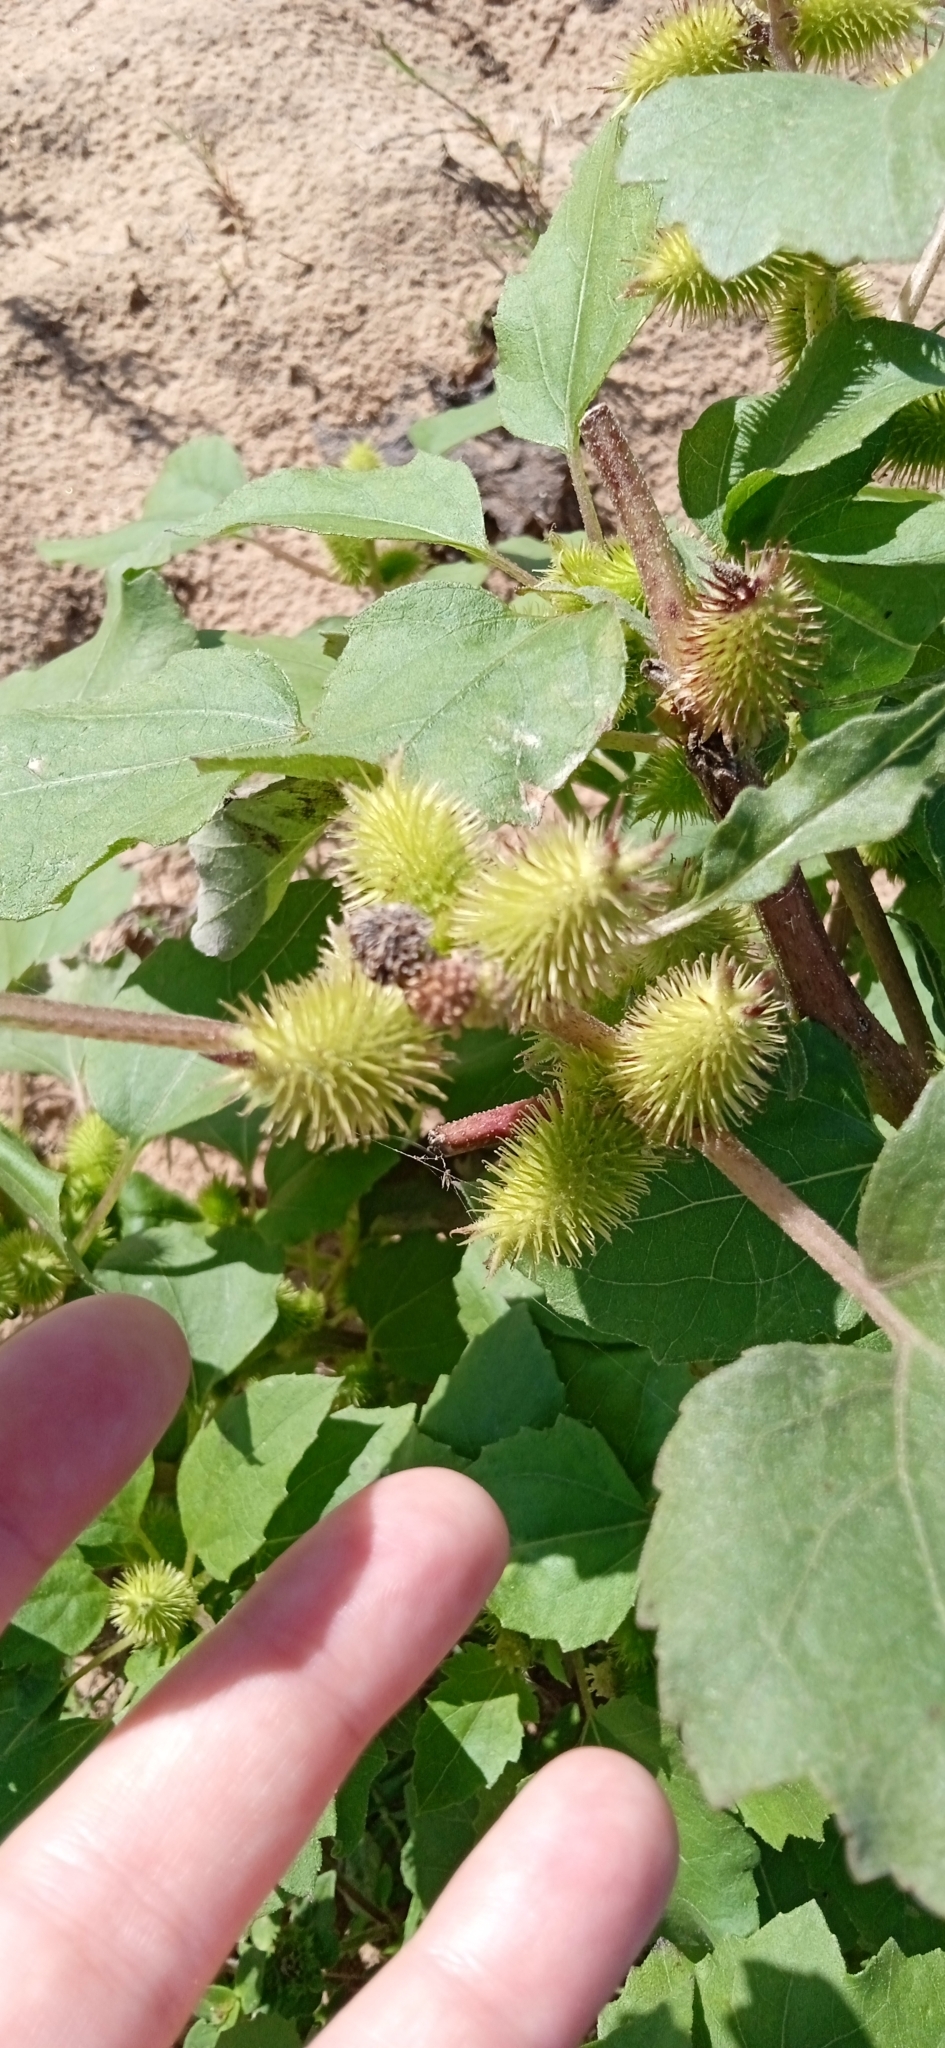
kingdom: Plantae
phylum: Tracheophyta
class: Magnoliopsida
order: Asterales
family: Asteraceae
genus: Xanthium
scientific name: Xanthium strumarium
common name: Rough cocklebur
